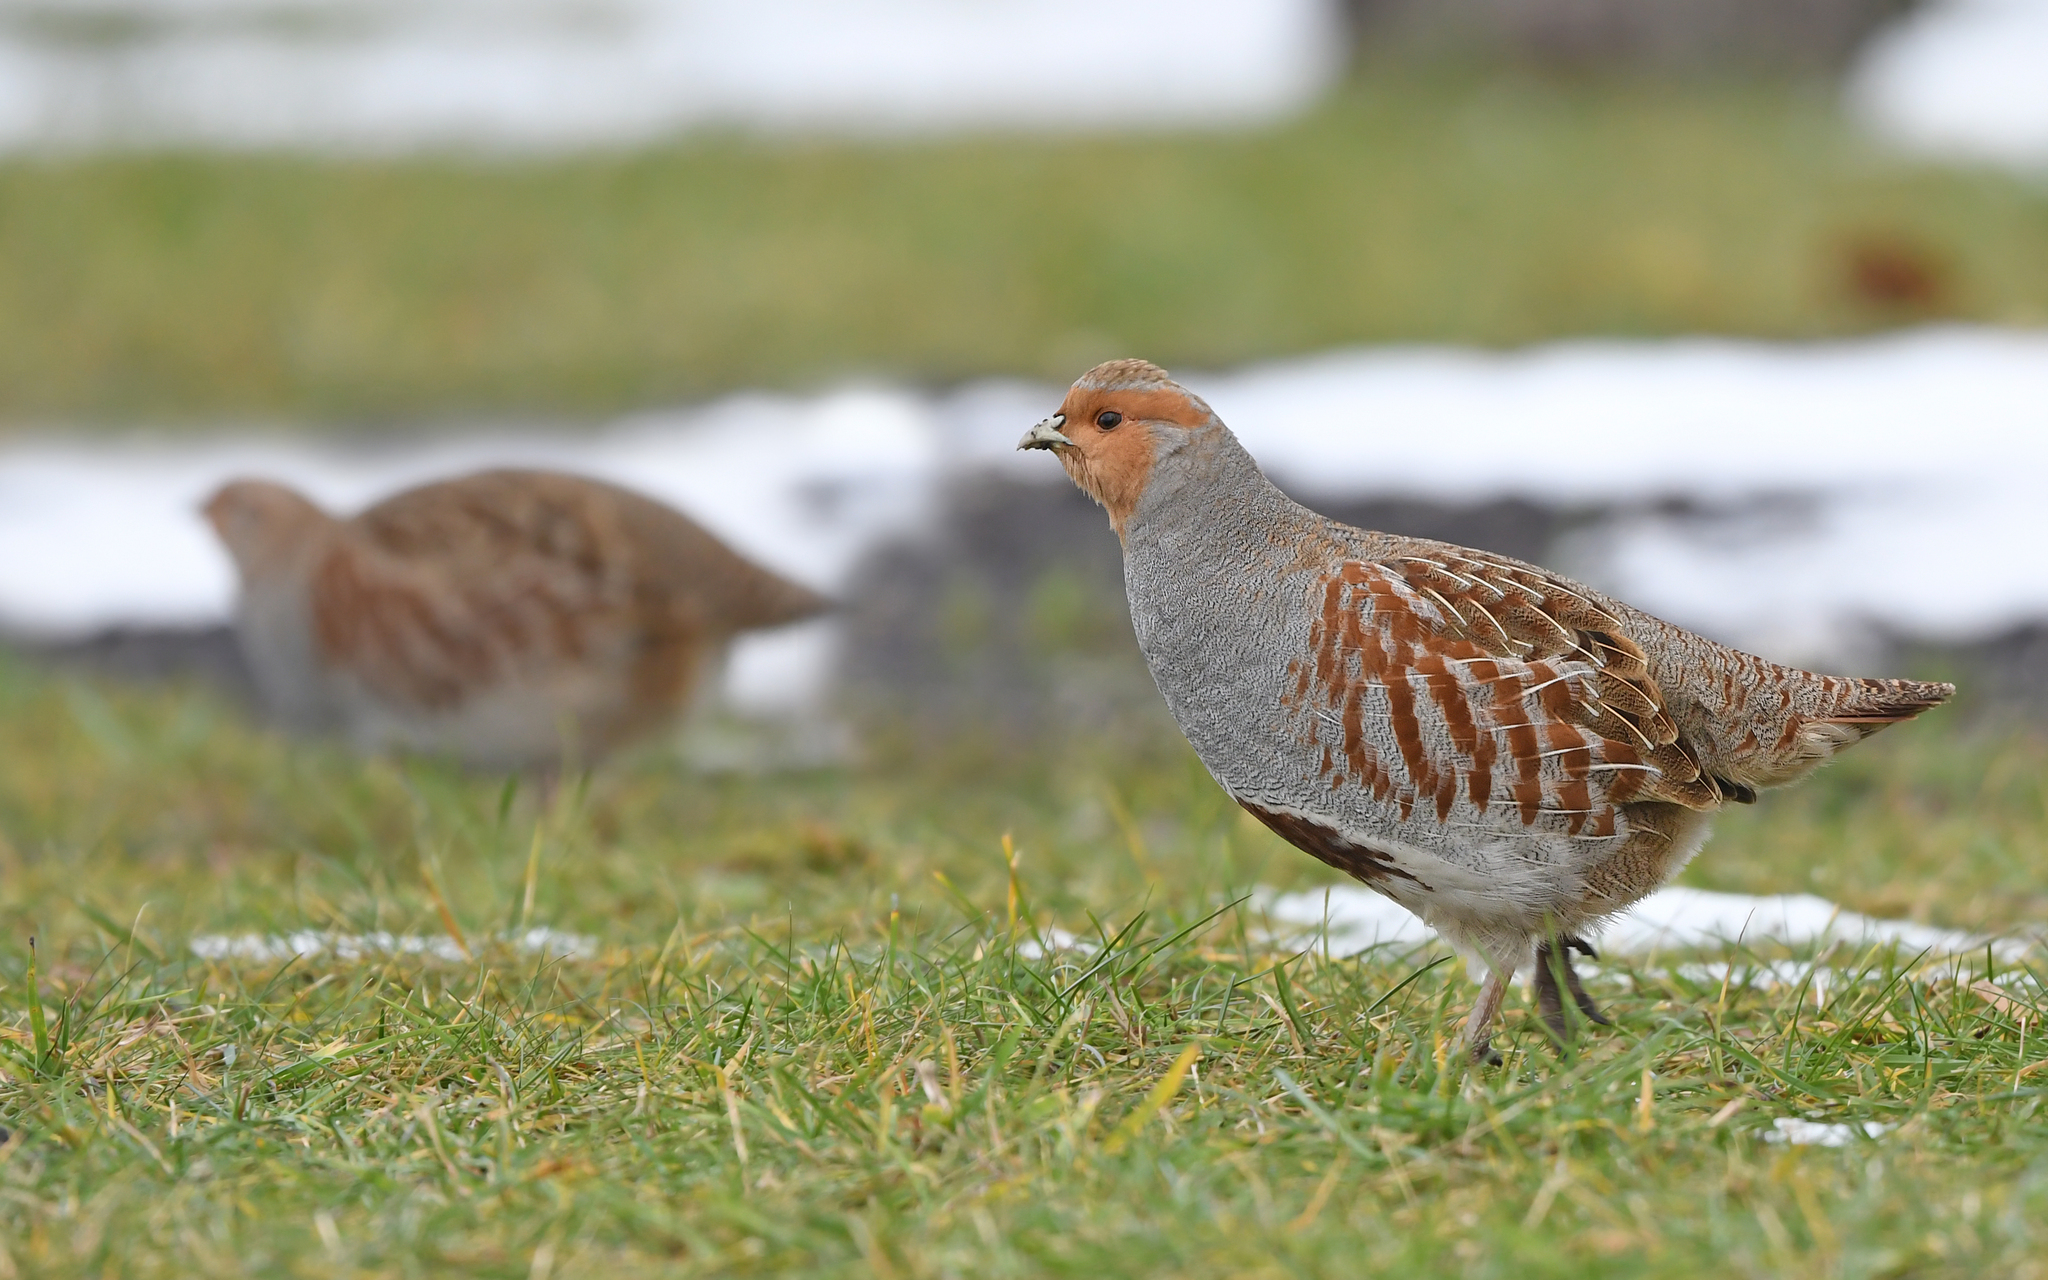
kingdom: Animalia
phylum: Chordata
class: Aves
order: Galliformes
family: Phasianidae
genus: Perdix
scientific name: Perdix perdix
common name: Grey partridge
